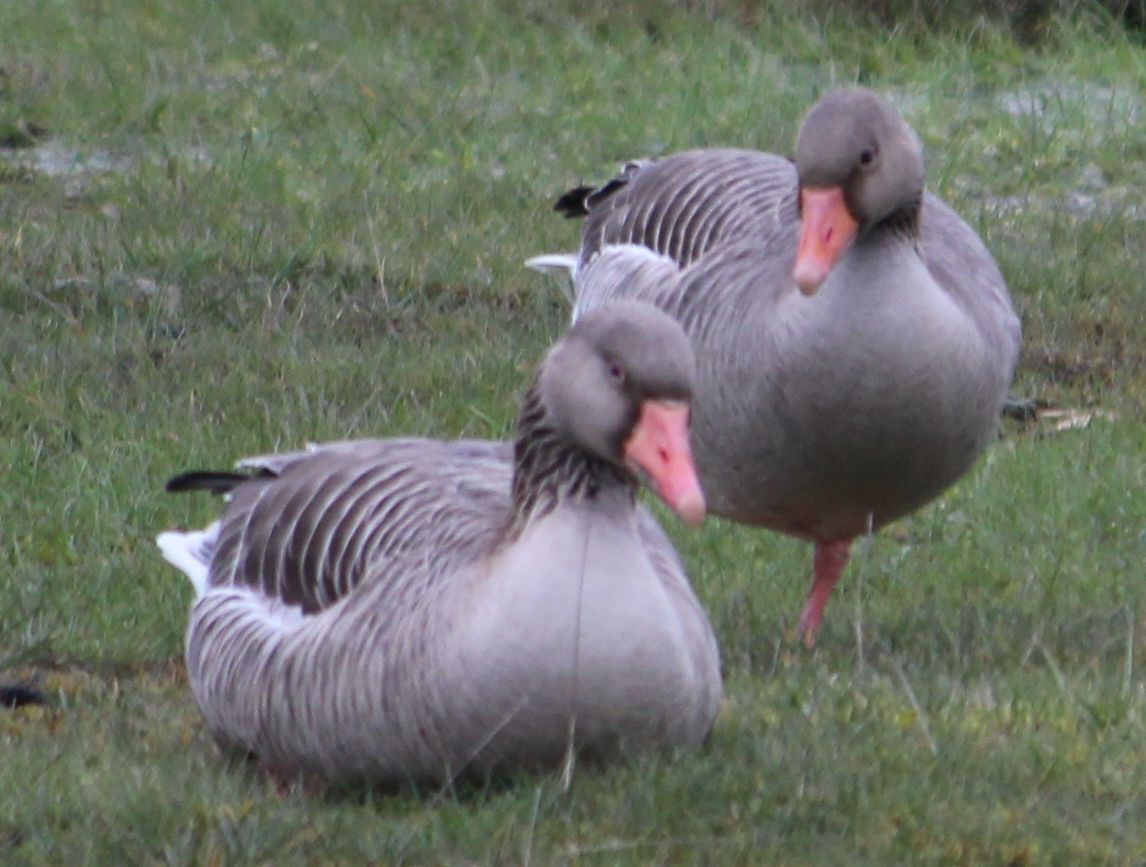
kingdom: Animalia
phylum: Chordata
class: Aves
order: Anseriformes
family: Anatidae
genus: Anser
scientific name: Anser anser
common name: Greylag goose
